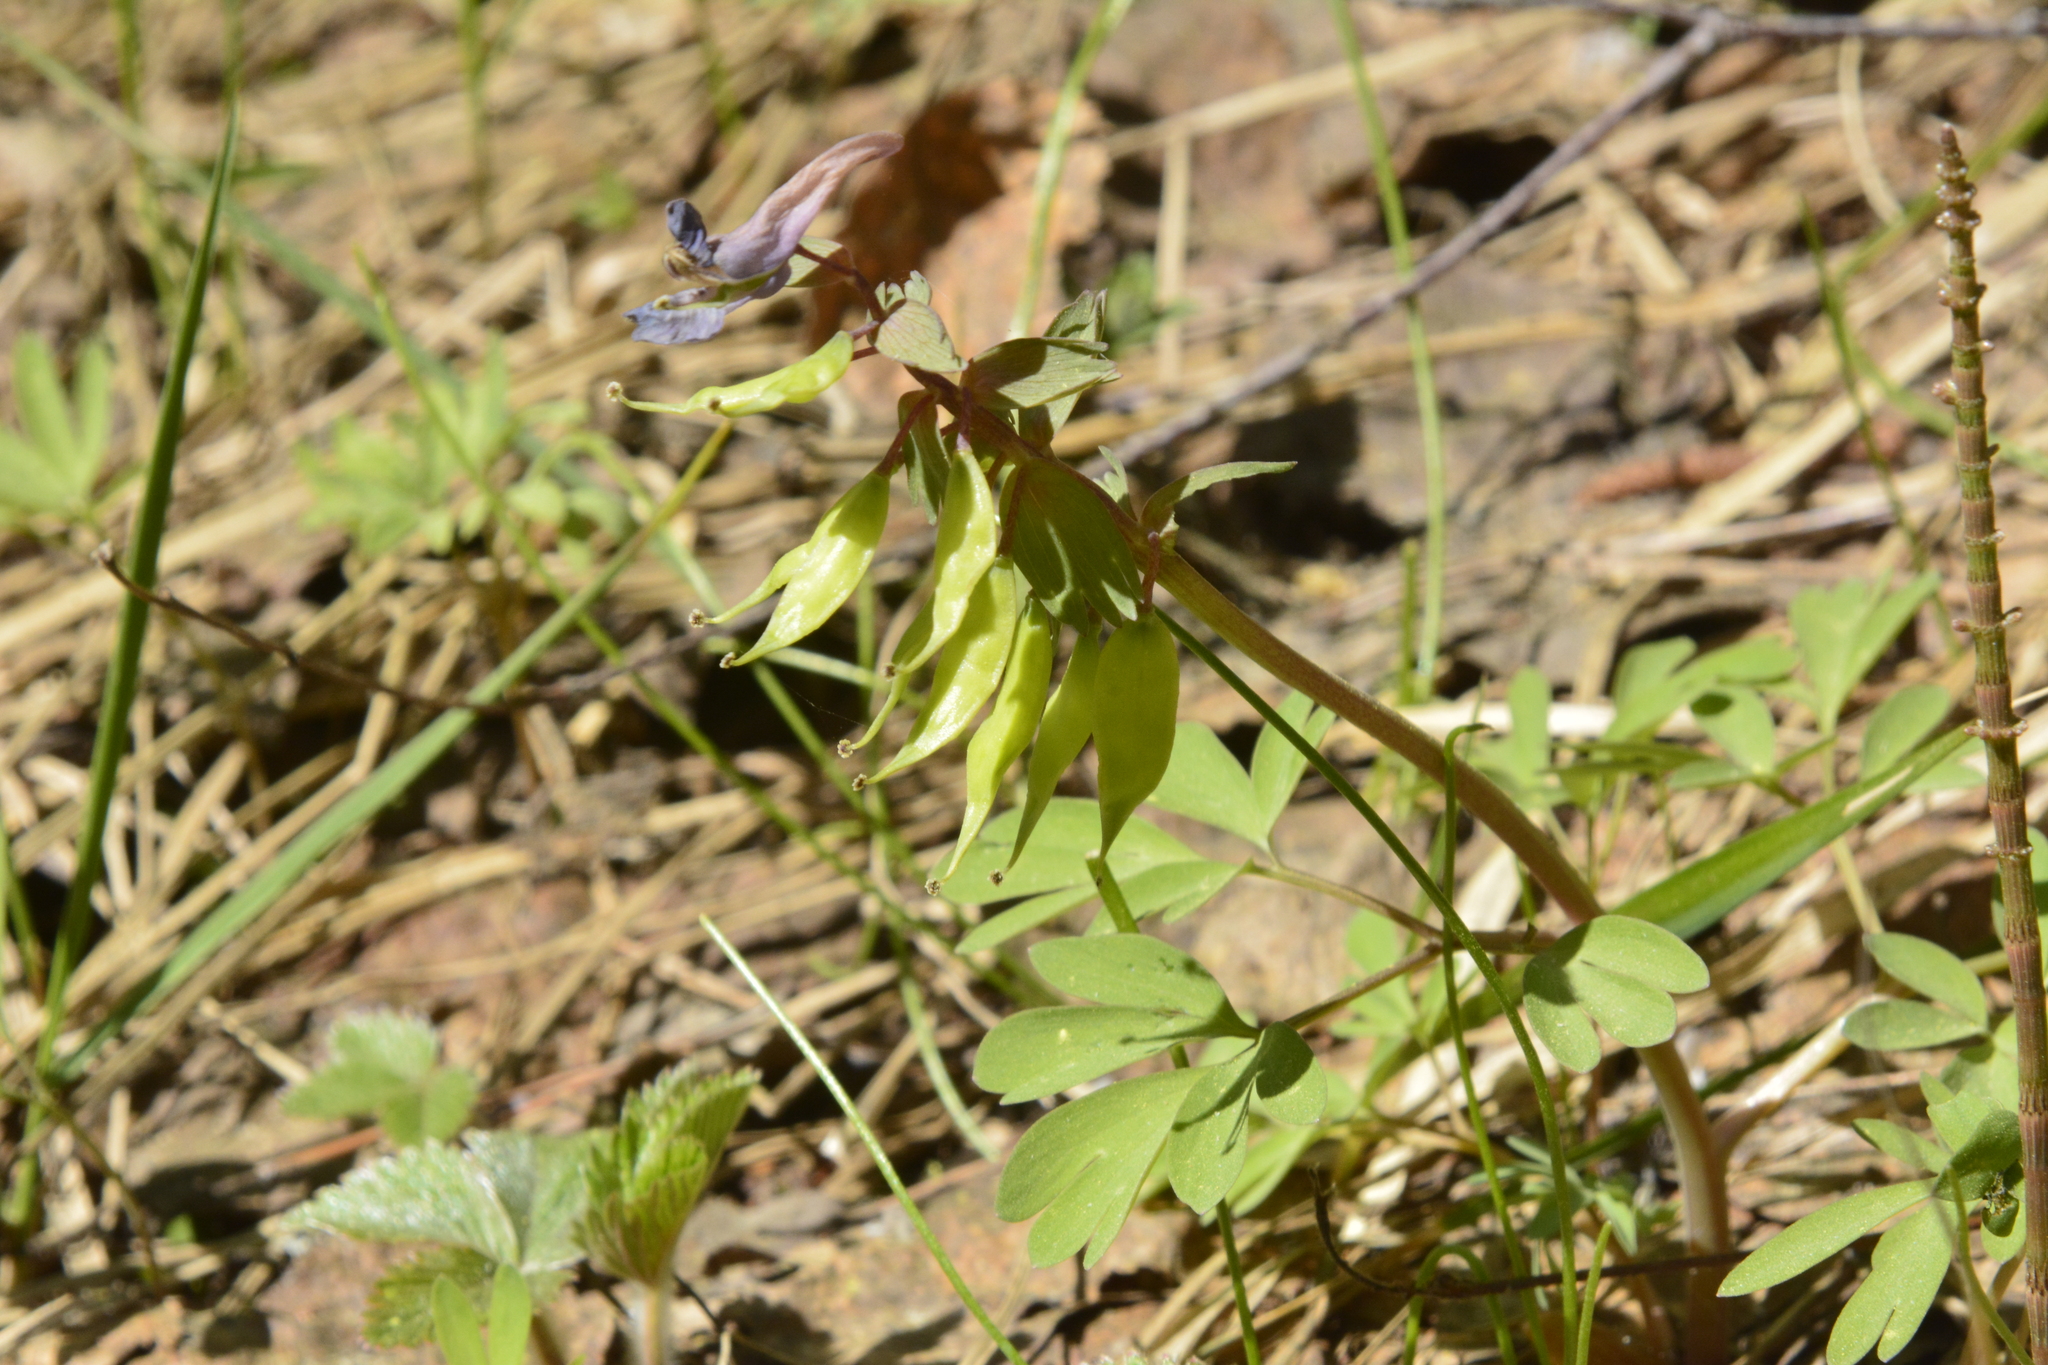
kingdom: Plantae
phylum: Tracheophyta
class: Magnoliopsida
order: Ranunculales
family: Papaveraceae
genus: Corydalis
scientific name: Corydalis solida
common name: Bird-in-a-bush
